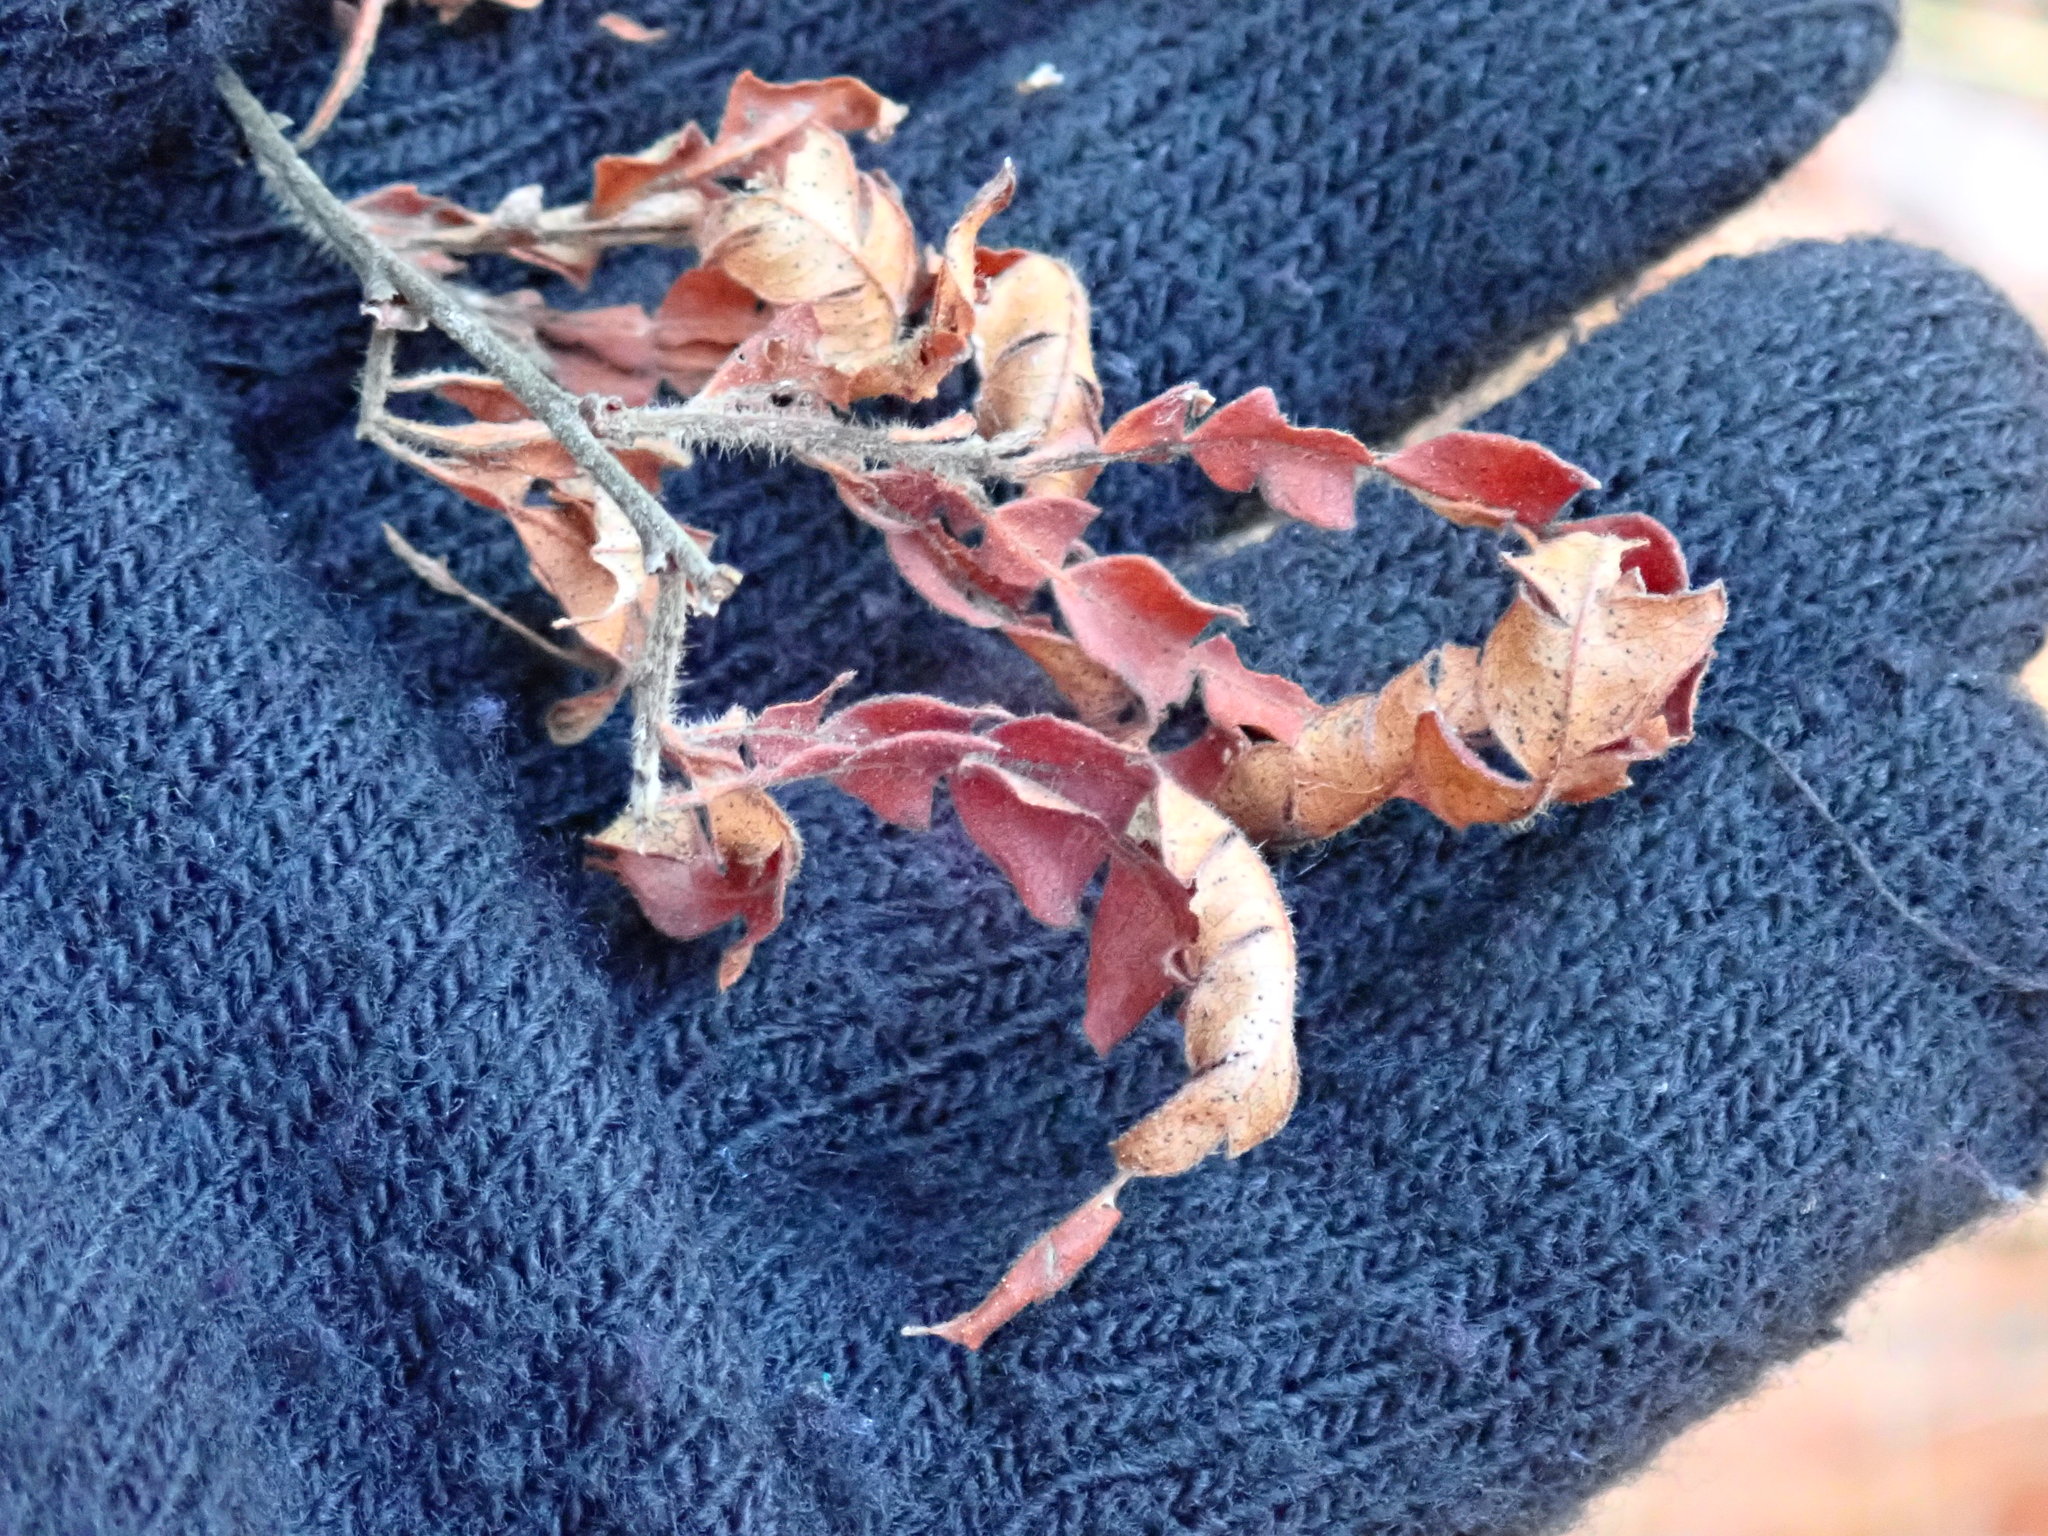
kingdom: Plantae
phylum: Tracheophyta
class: Magnoliopsida
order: Fagales
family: Myricaceae
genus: Comptonia
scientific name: Comptonia peregrina
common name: Sweet-fern
